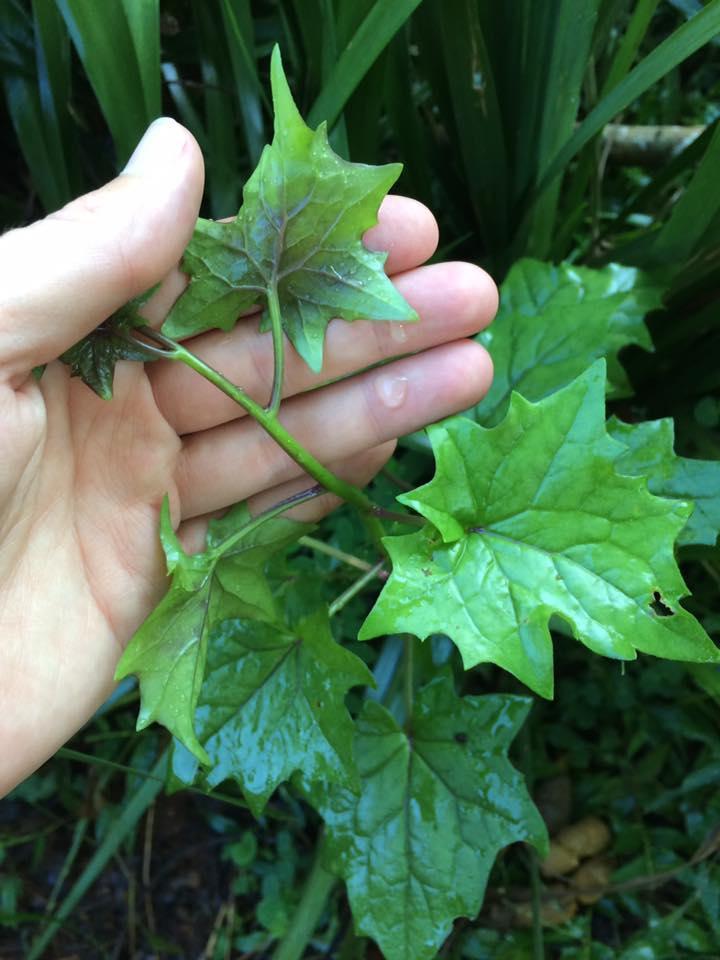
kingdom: Plantae
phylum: Tracheophyta
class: Magnoliopsida
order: Asterales
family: Asteraceae
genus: Senecio
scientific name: Senecio tamoides
